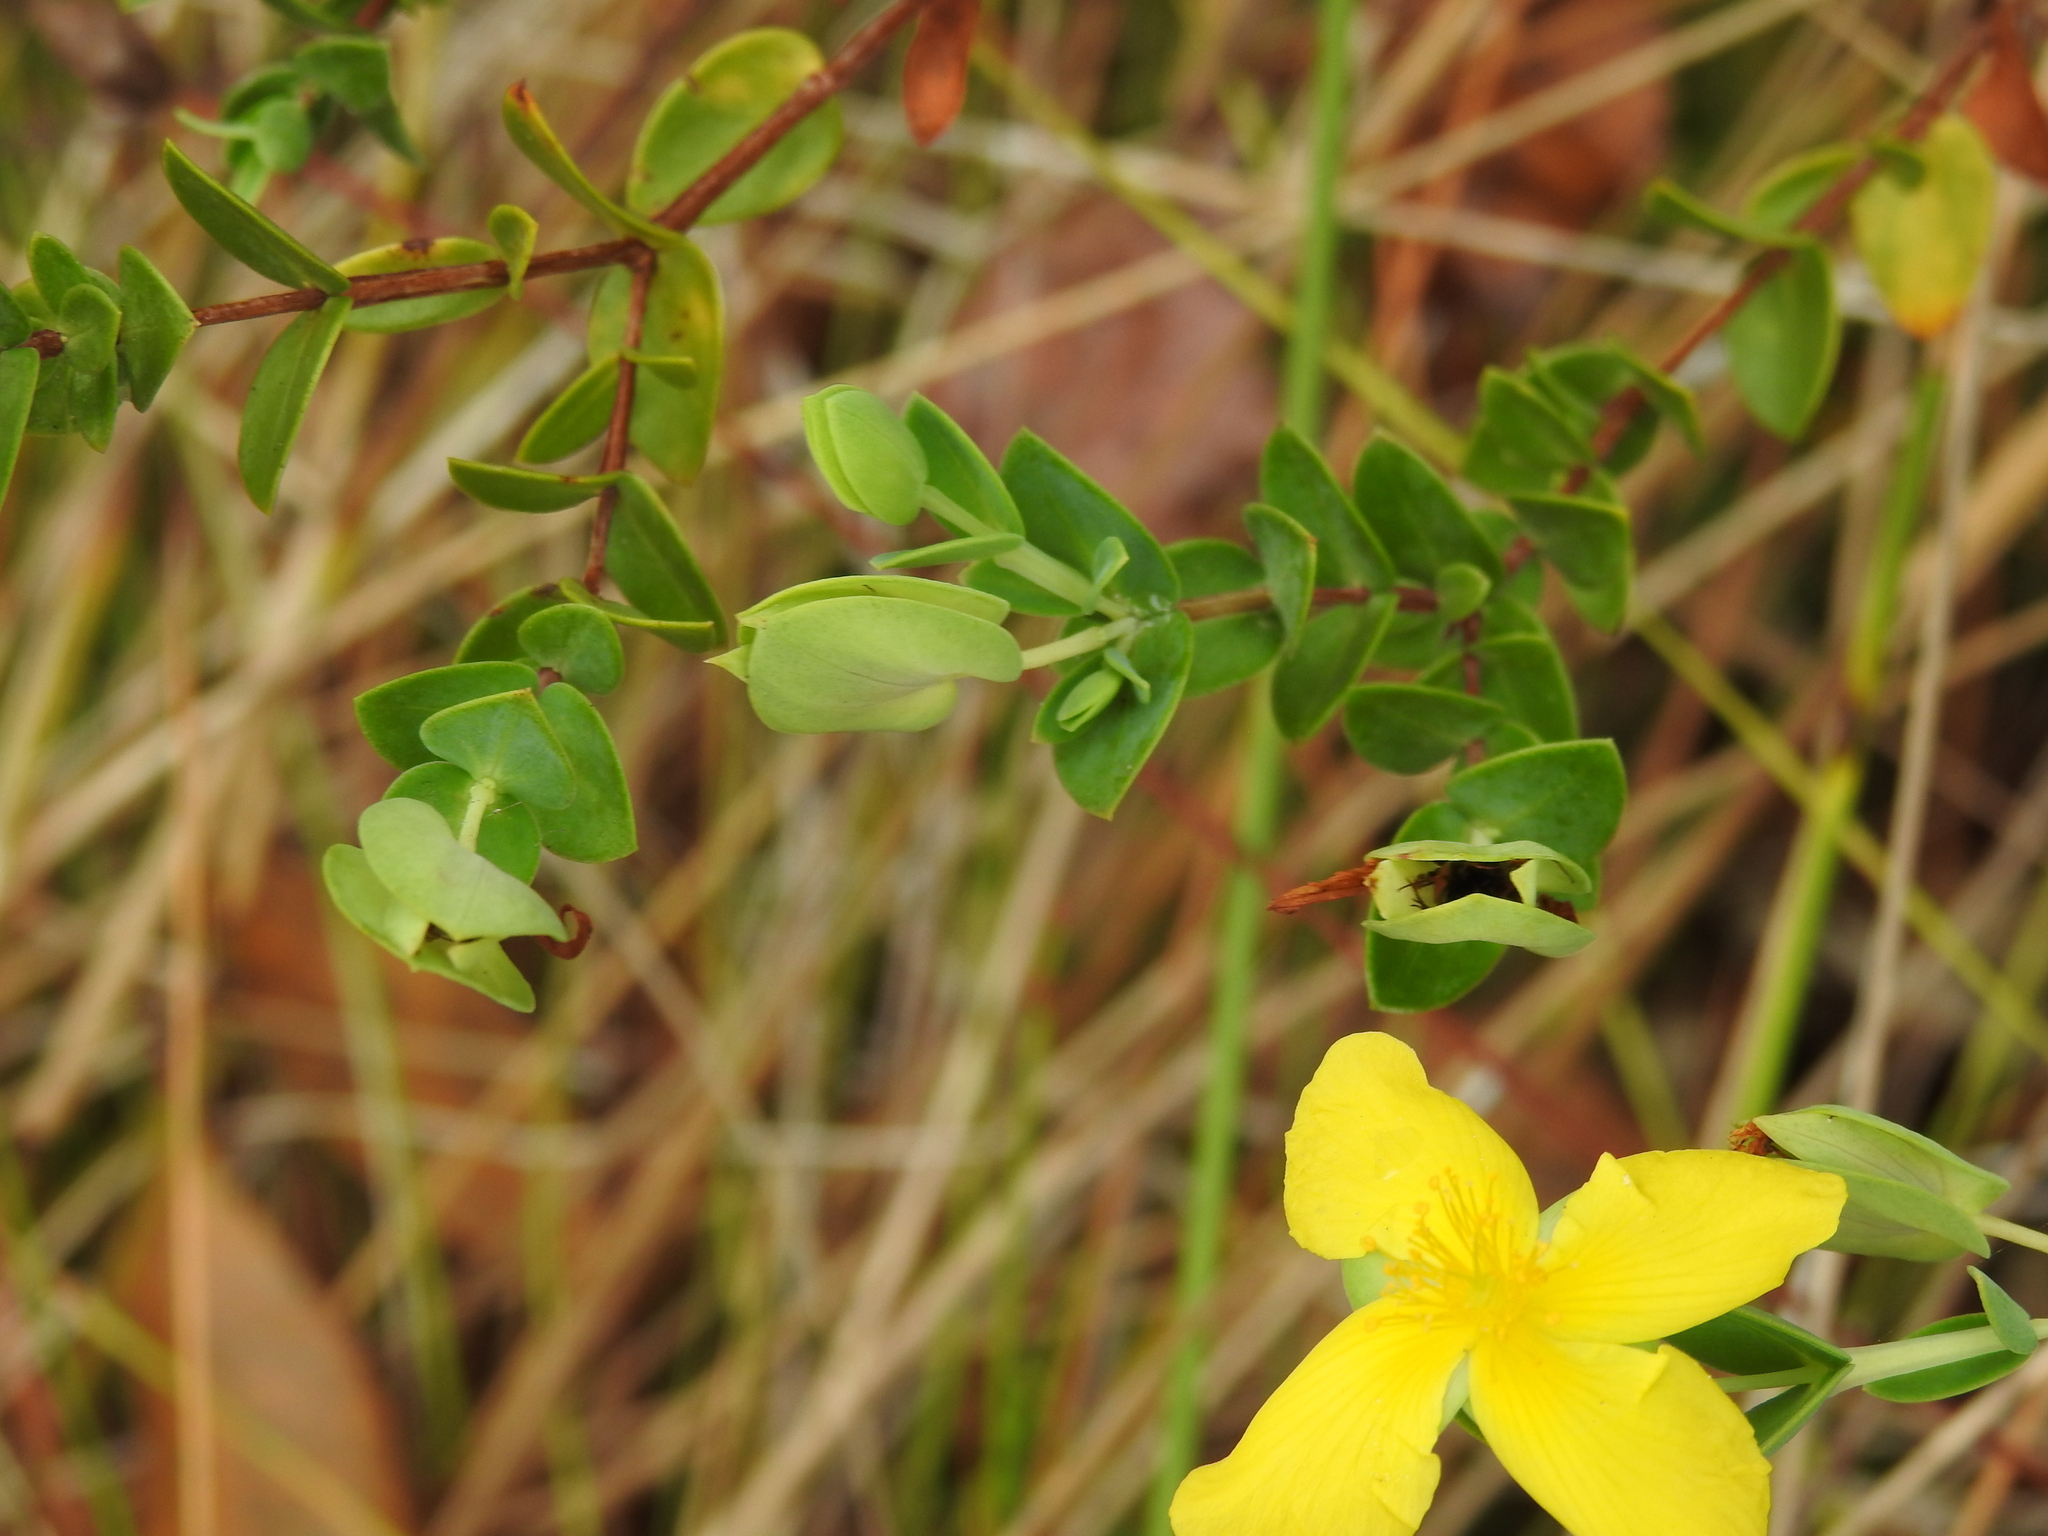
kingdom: Plantae
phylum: Tracheophyta
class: Magnoliopsida
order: Malpighiales
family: Hypericaceae
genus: Hypericum
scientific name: Hypericum tetrapetalum
